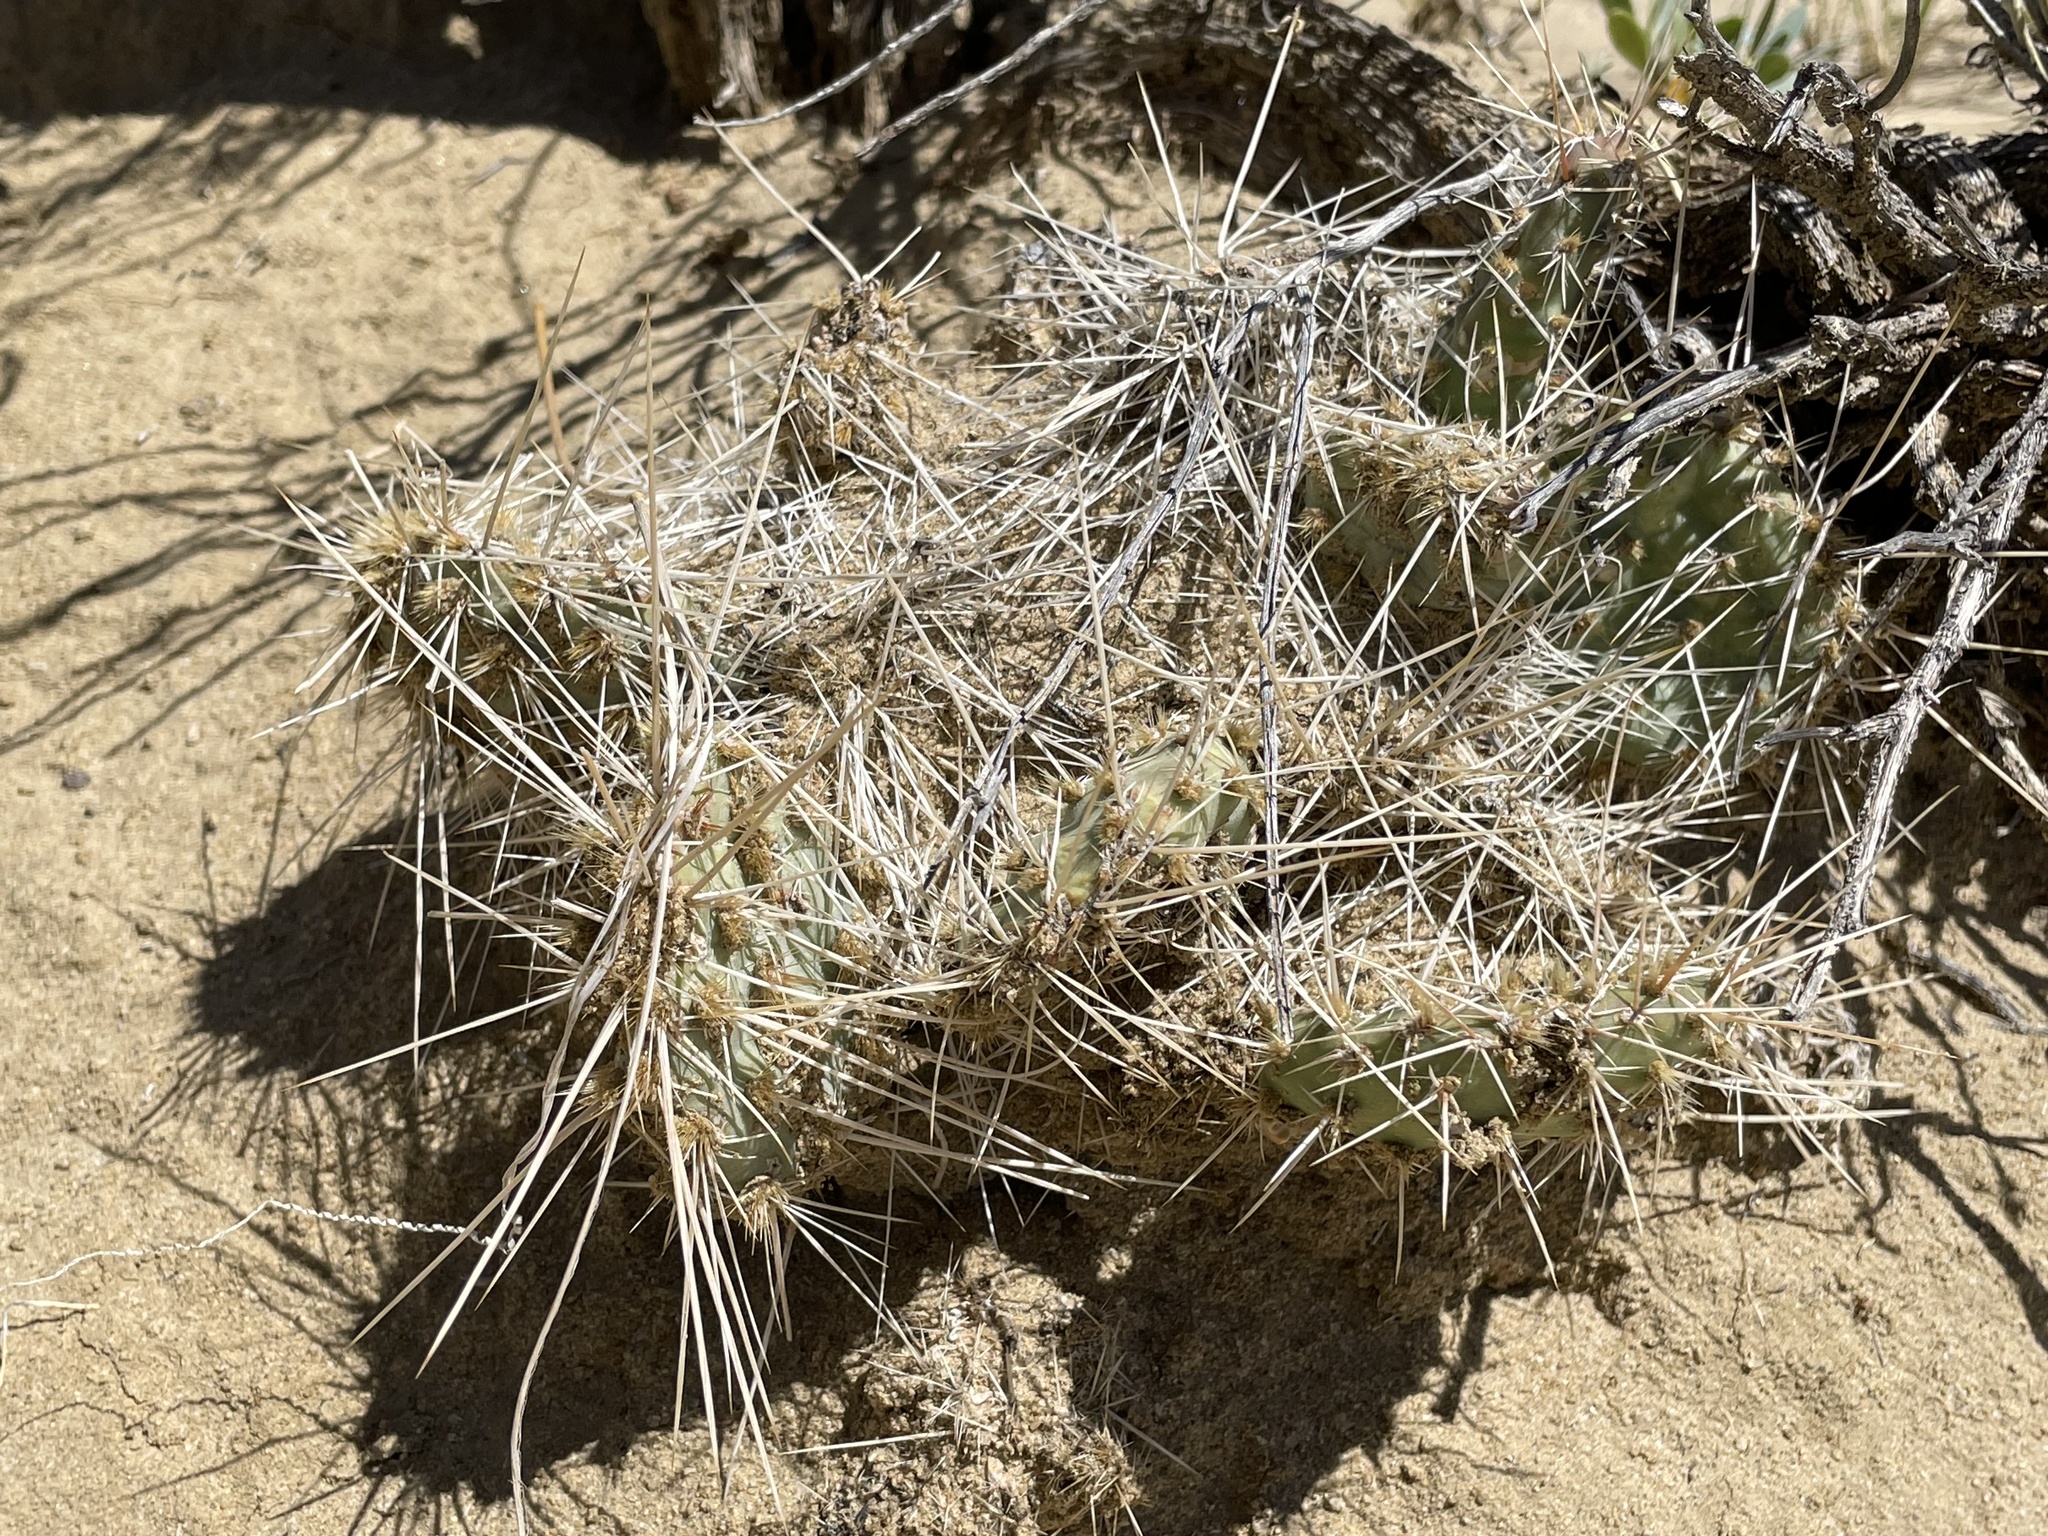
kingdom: Plantae
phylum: Tracheophyta
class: Magnoliopsida
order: Caryophyllales
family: Cactaceae
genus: Opuntia
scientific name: Opuntia polyacantha
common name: Plains prickly-pear
